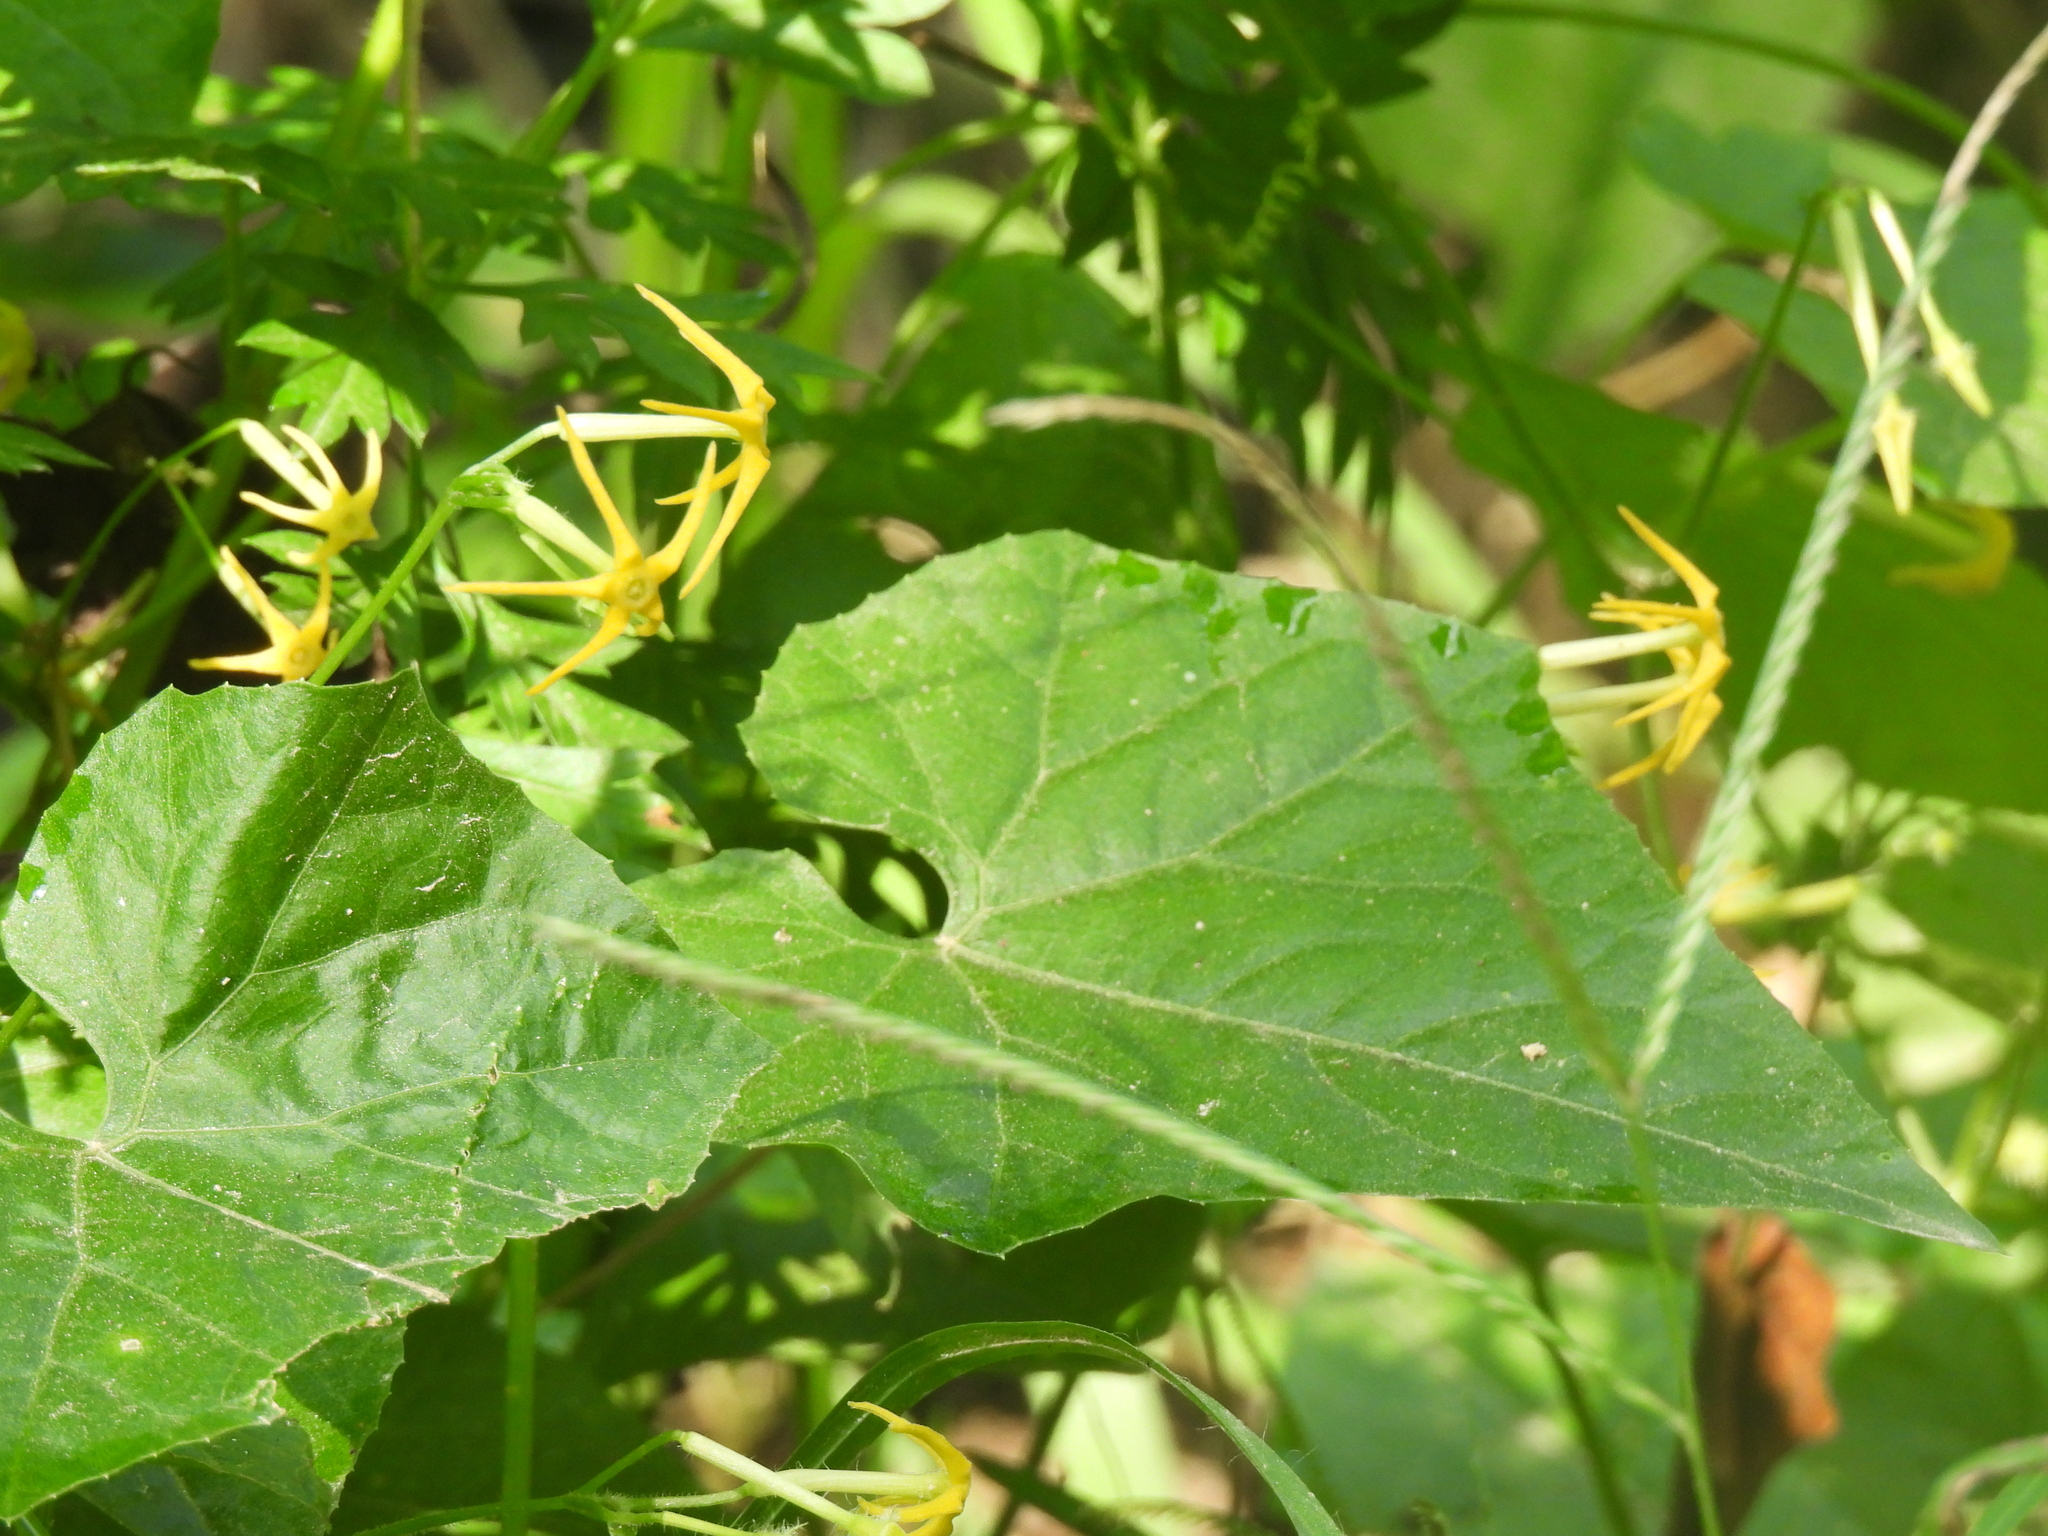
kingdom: Plantae
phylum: Tracheophyta
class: Magnoliopsida
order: Cucurbitales
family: Cucurbitaceae
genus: Cyclanthera
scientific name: Cyclanthera carthagenensis
